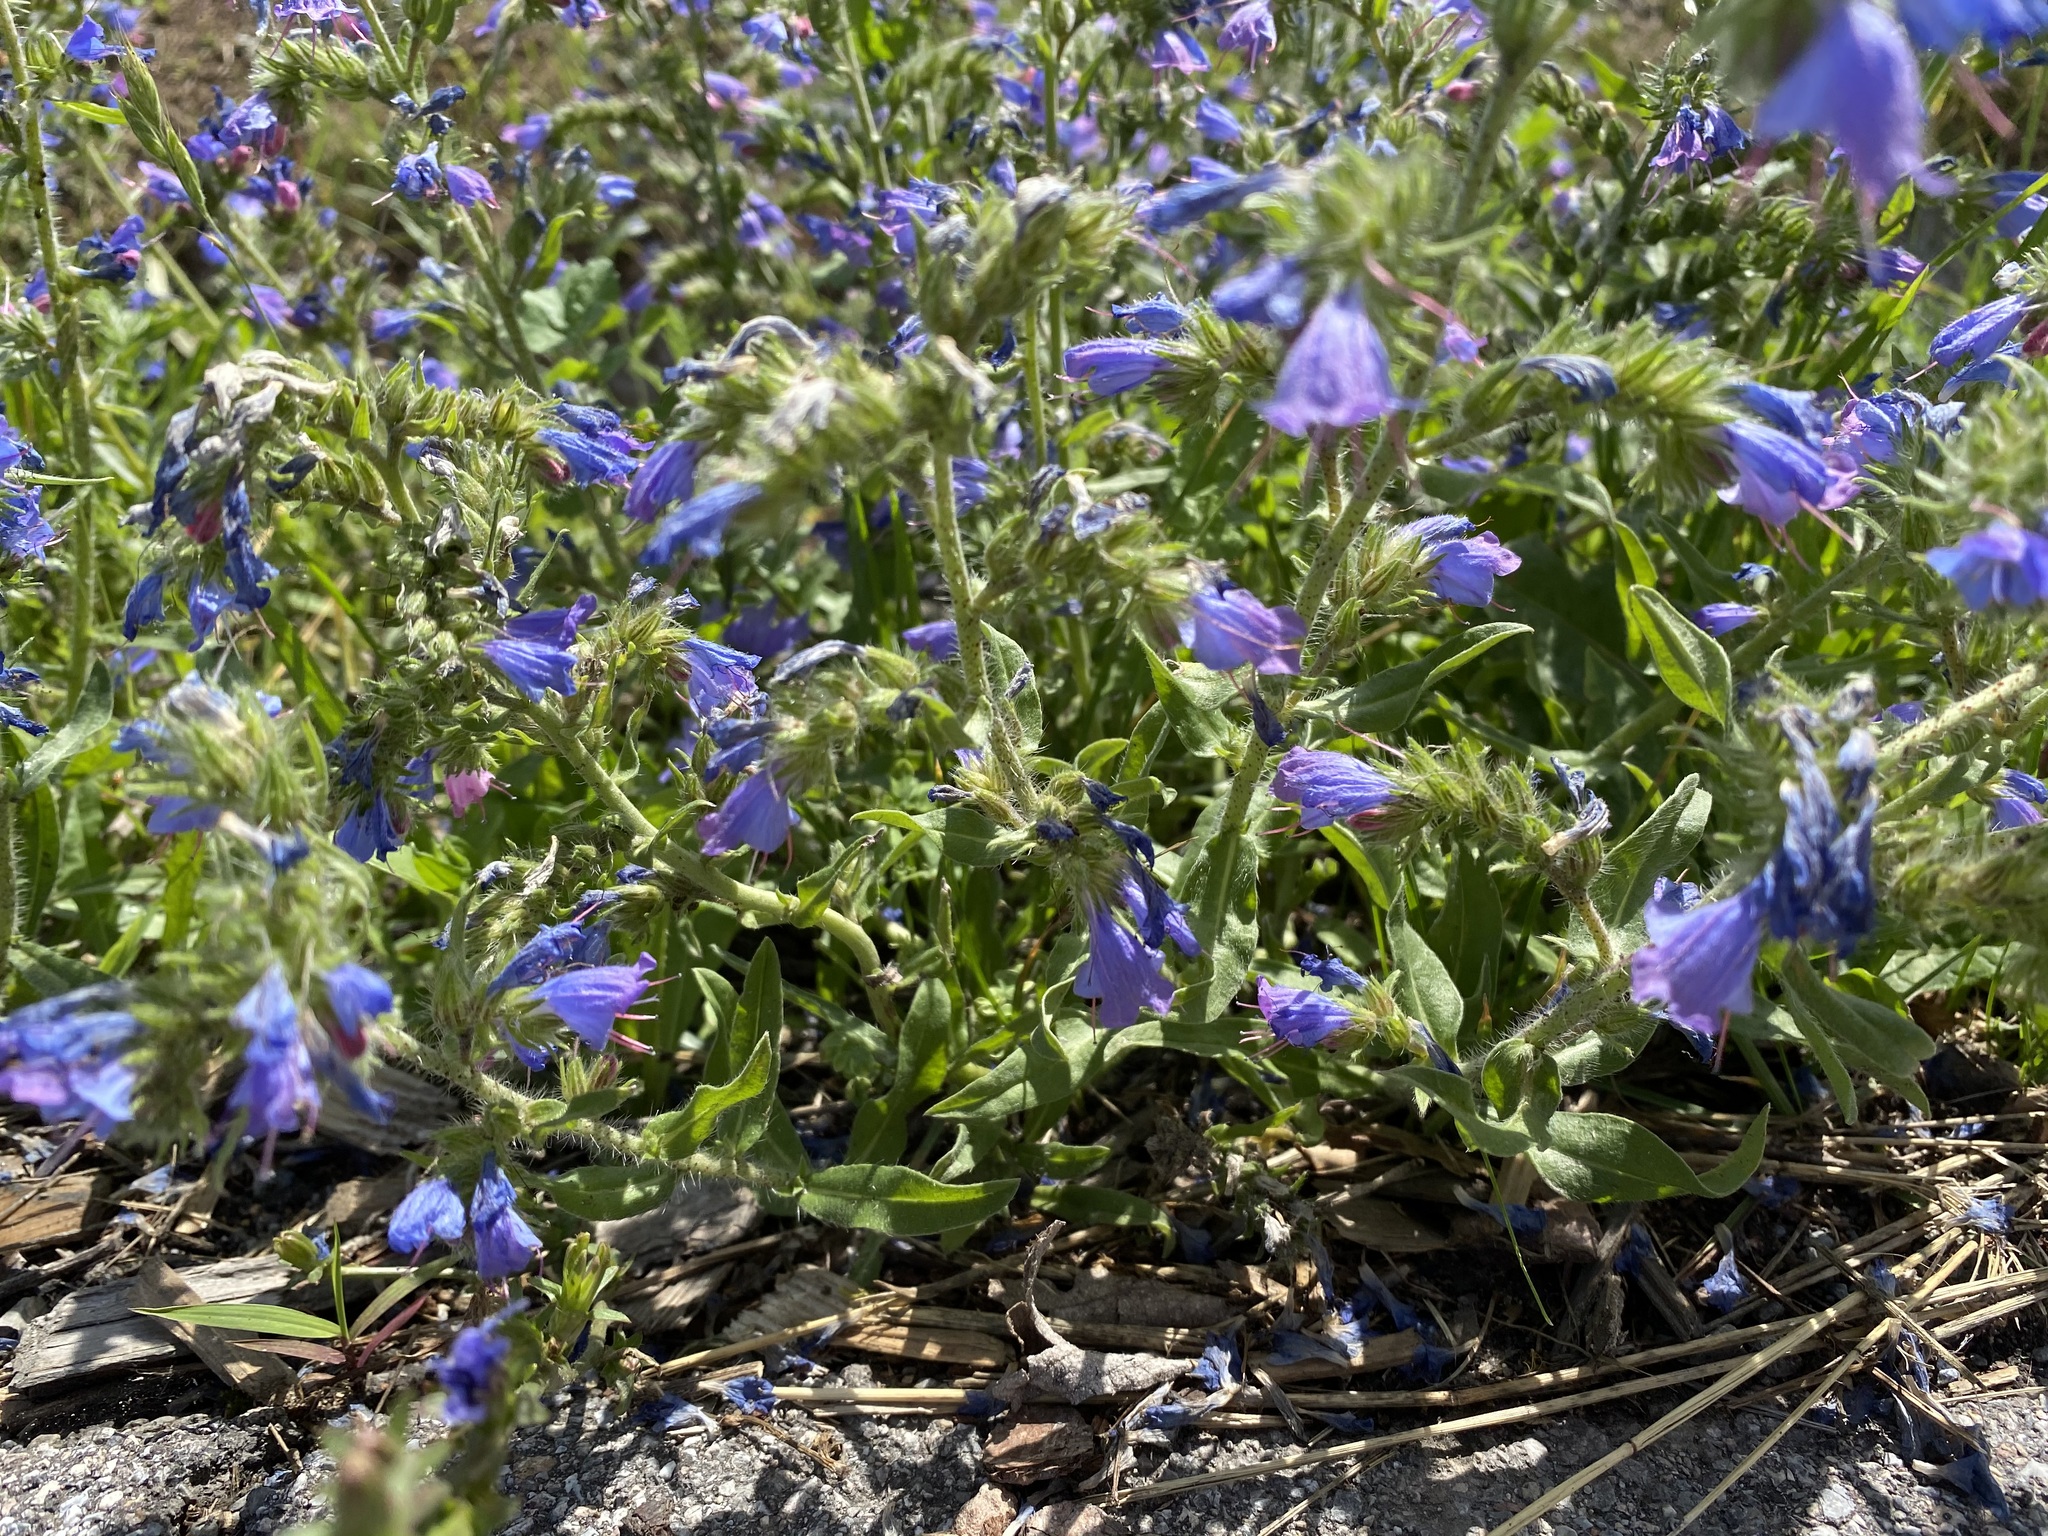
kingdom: Plantae
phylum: Tracheophyta
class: Magnoliopsida
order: Boraginales
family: Boraginaceae
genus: Echium
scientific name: Echium vulgare
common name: Common viper's bugloss
